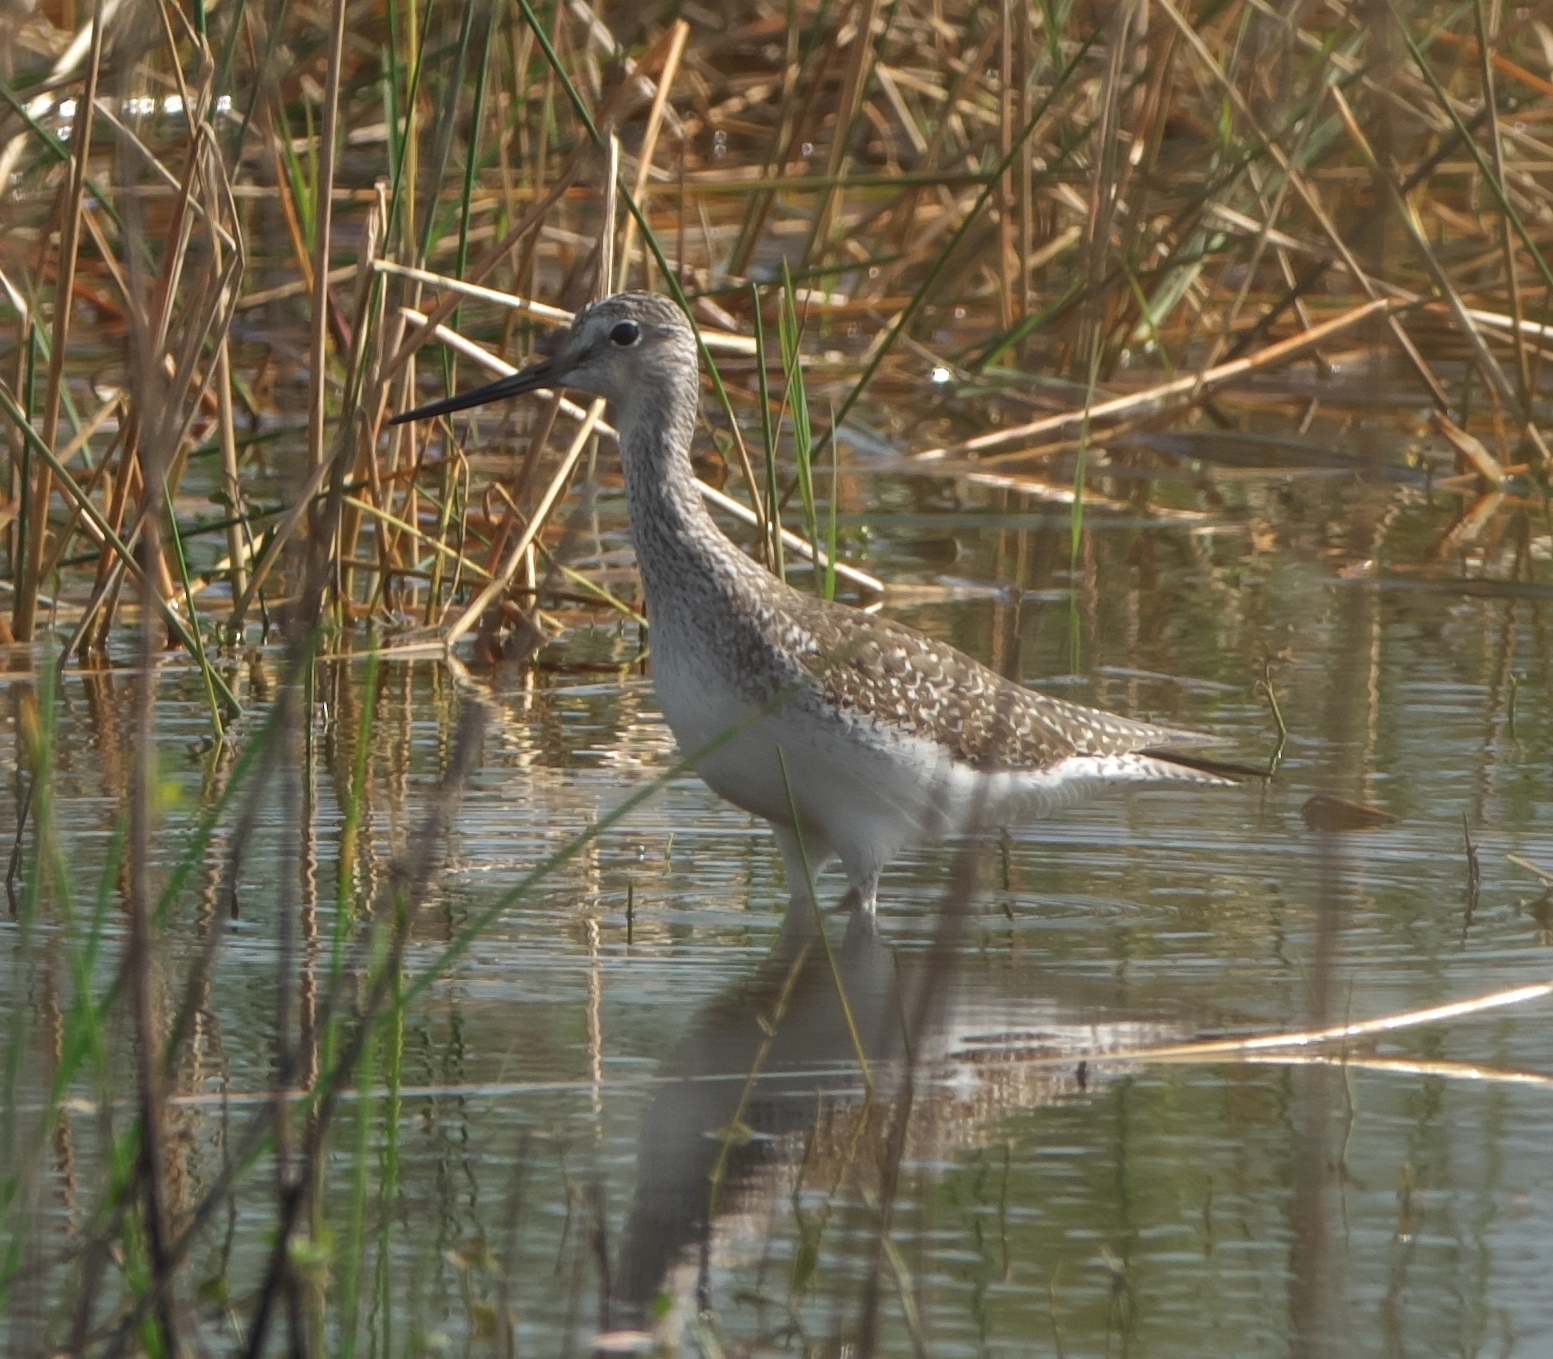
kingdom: Animalia
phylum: Chordata
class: Aves
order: Charadriiformes
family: Scolopacidae
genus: Tringa
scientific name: Tringa melanoleuca
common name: Greater yellowlegs
